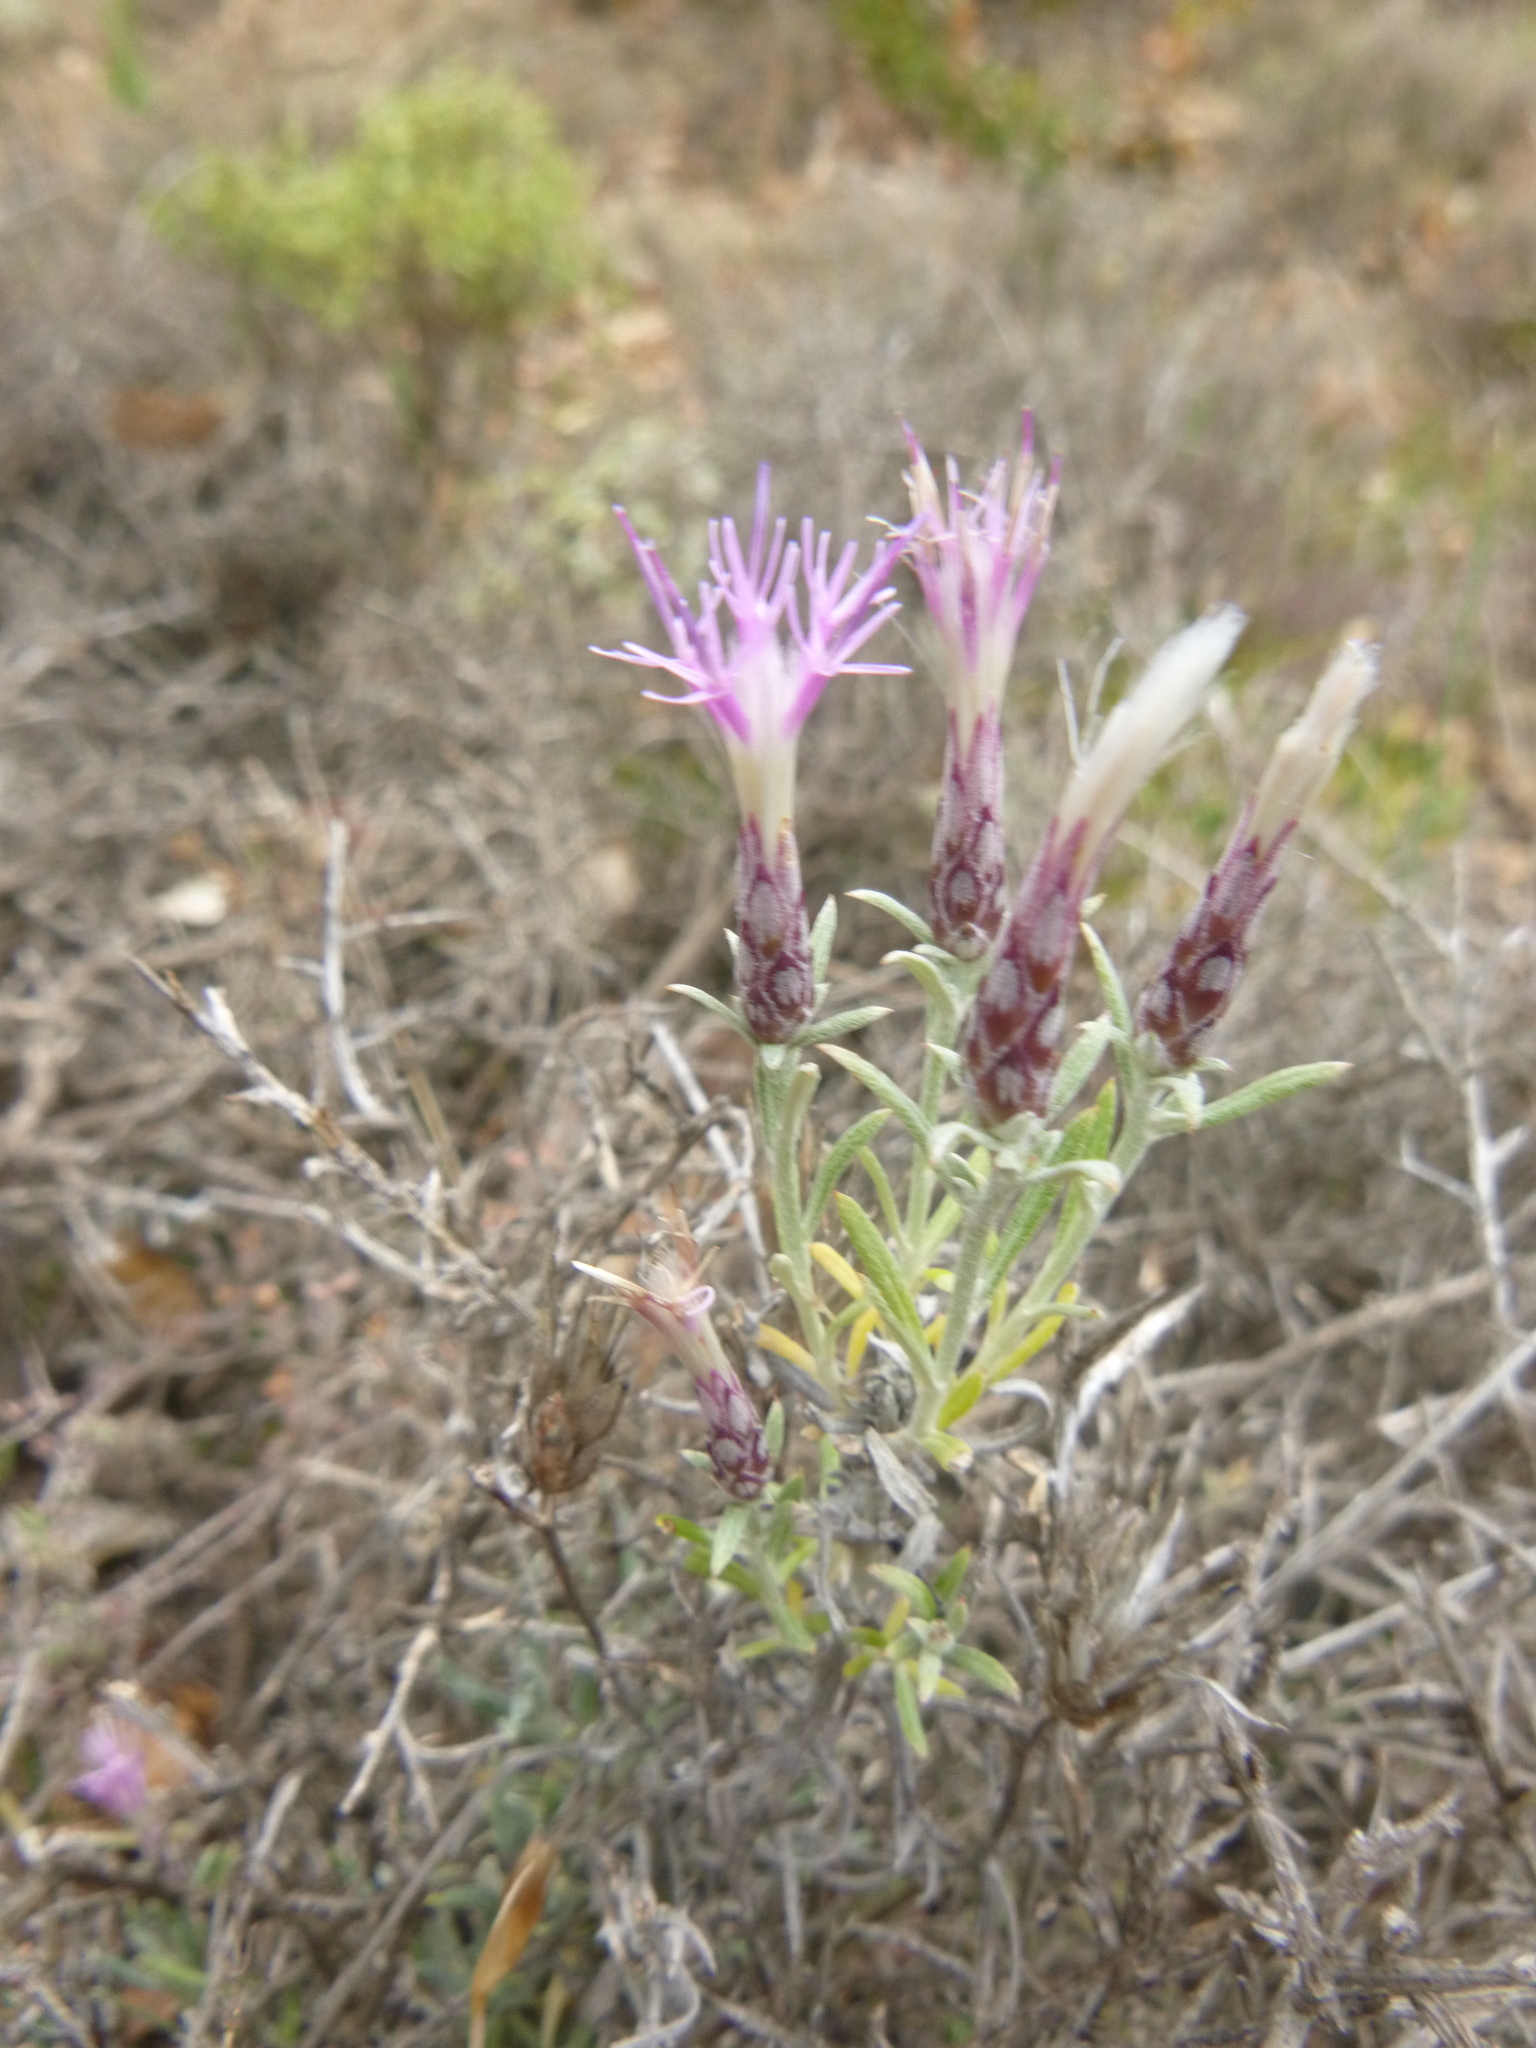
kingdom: Plantae
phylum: Tracheophyta
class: Magnoliopsida
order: Asterales
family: Asteraceae
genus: Staehelina
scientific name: Staehelina dubia
